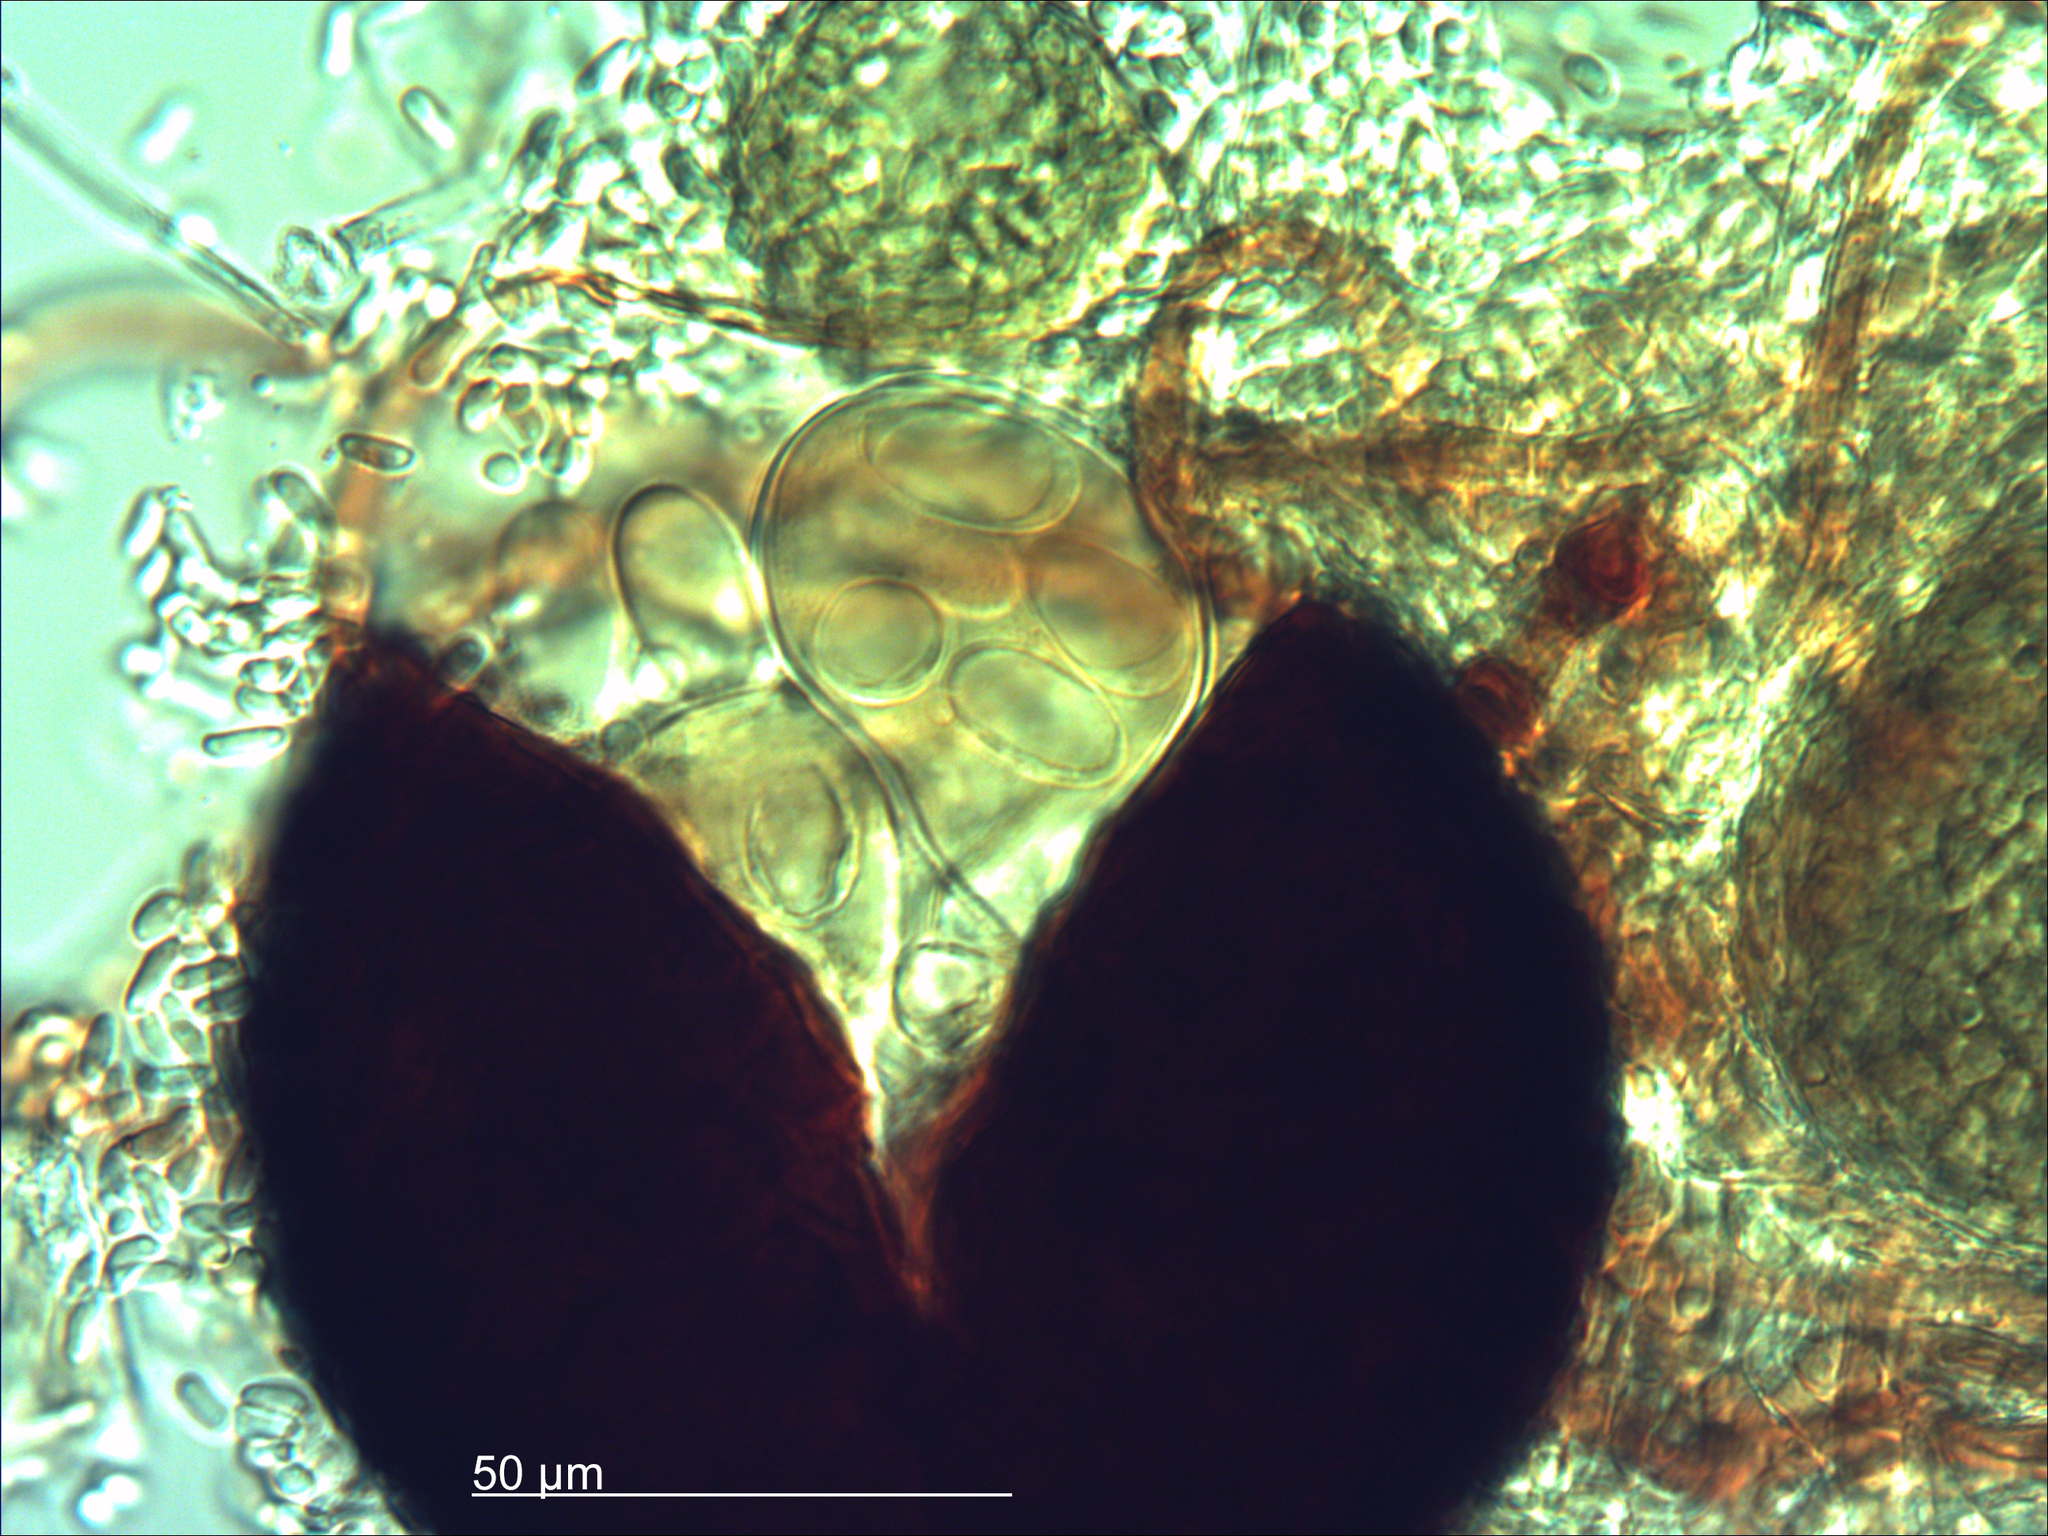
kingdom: Fungi
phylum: Ascomycota
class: Leotiomycetes
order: Helotiales
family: Erysiphaceae
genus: Erysiphe
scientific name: Erysiphe aquilegiae
